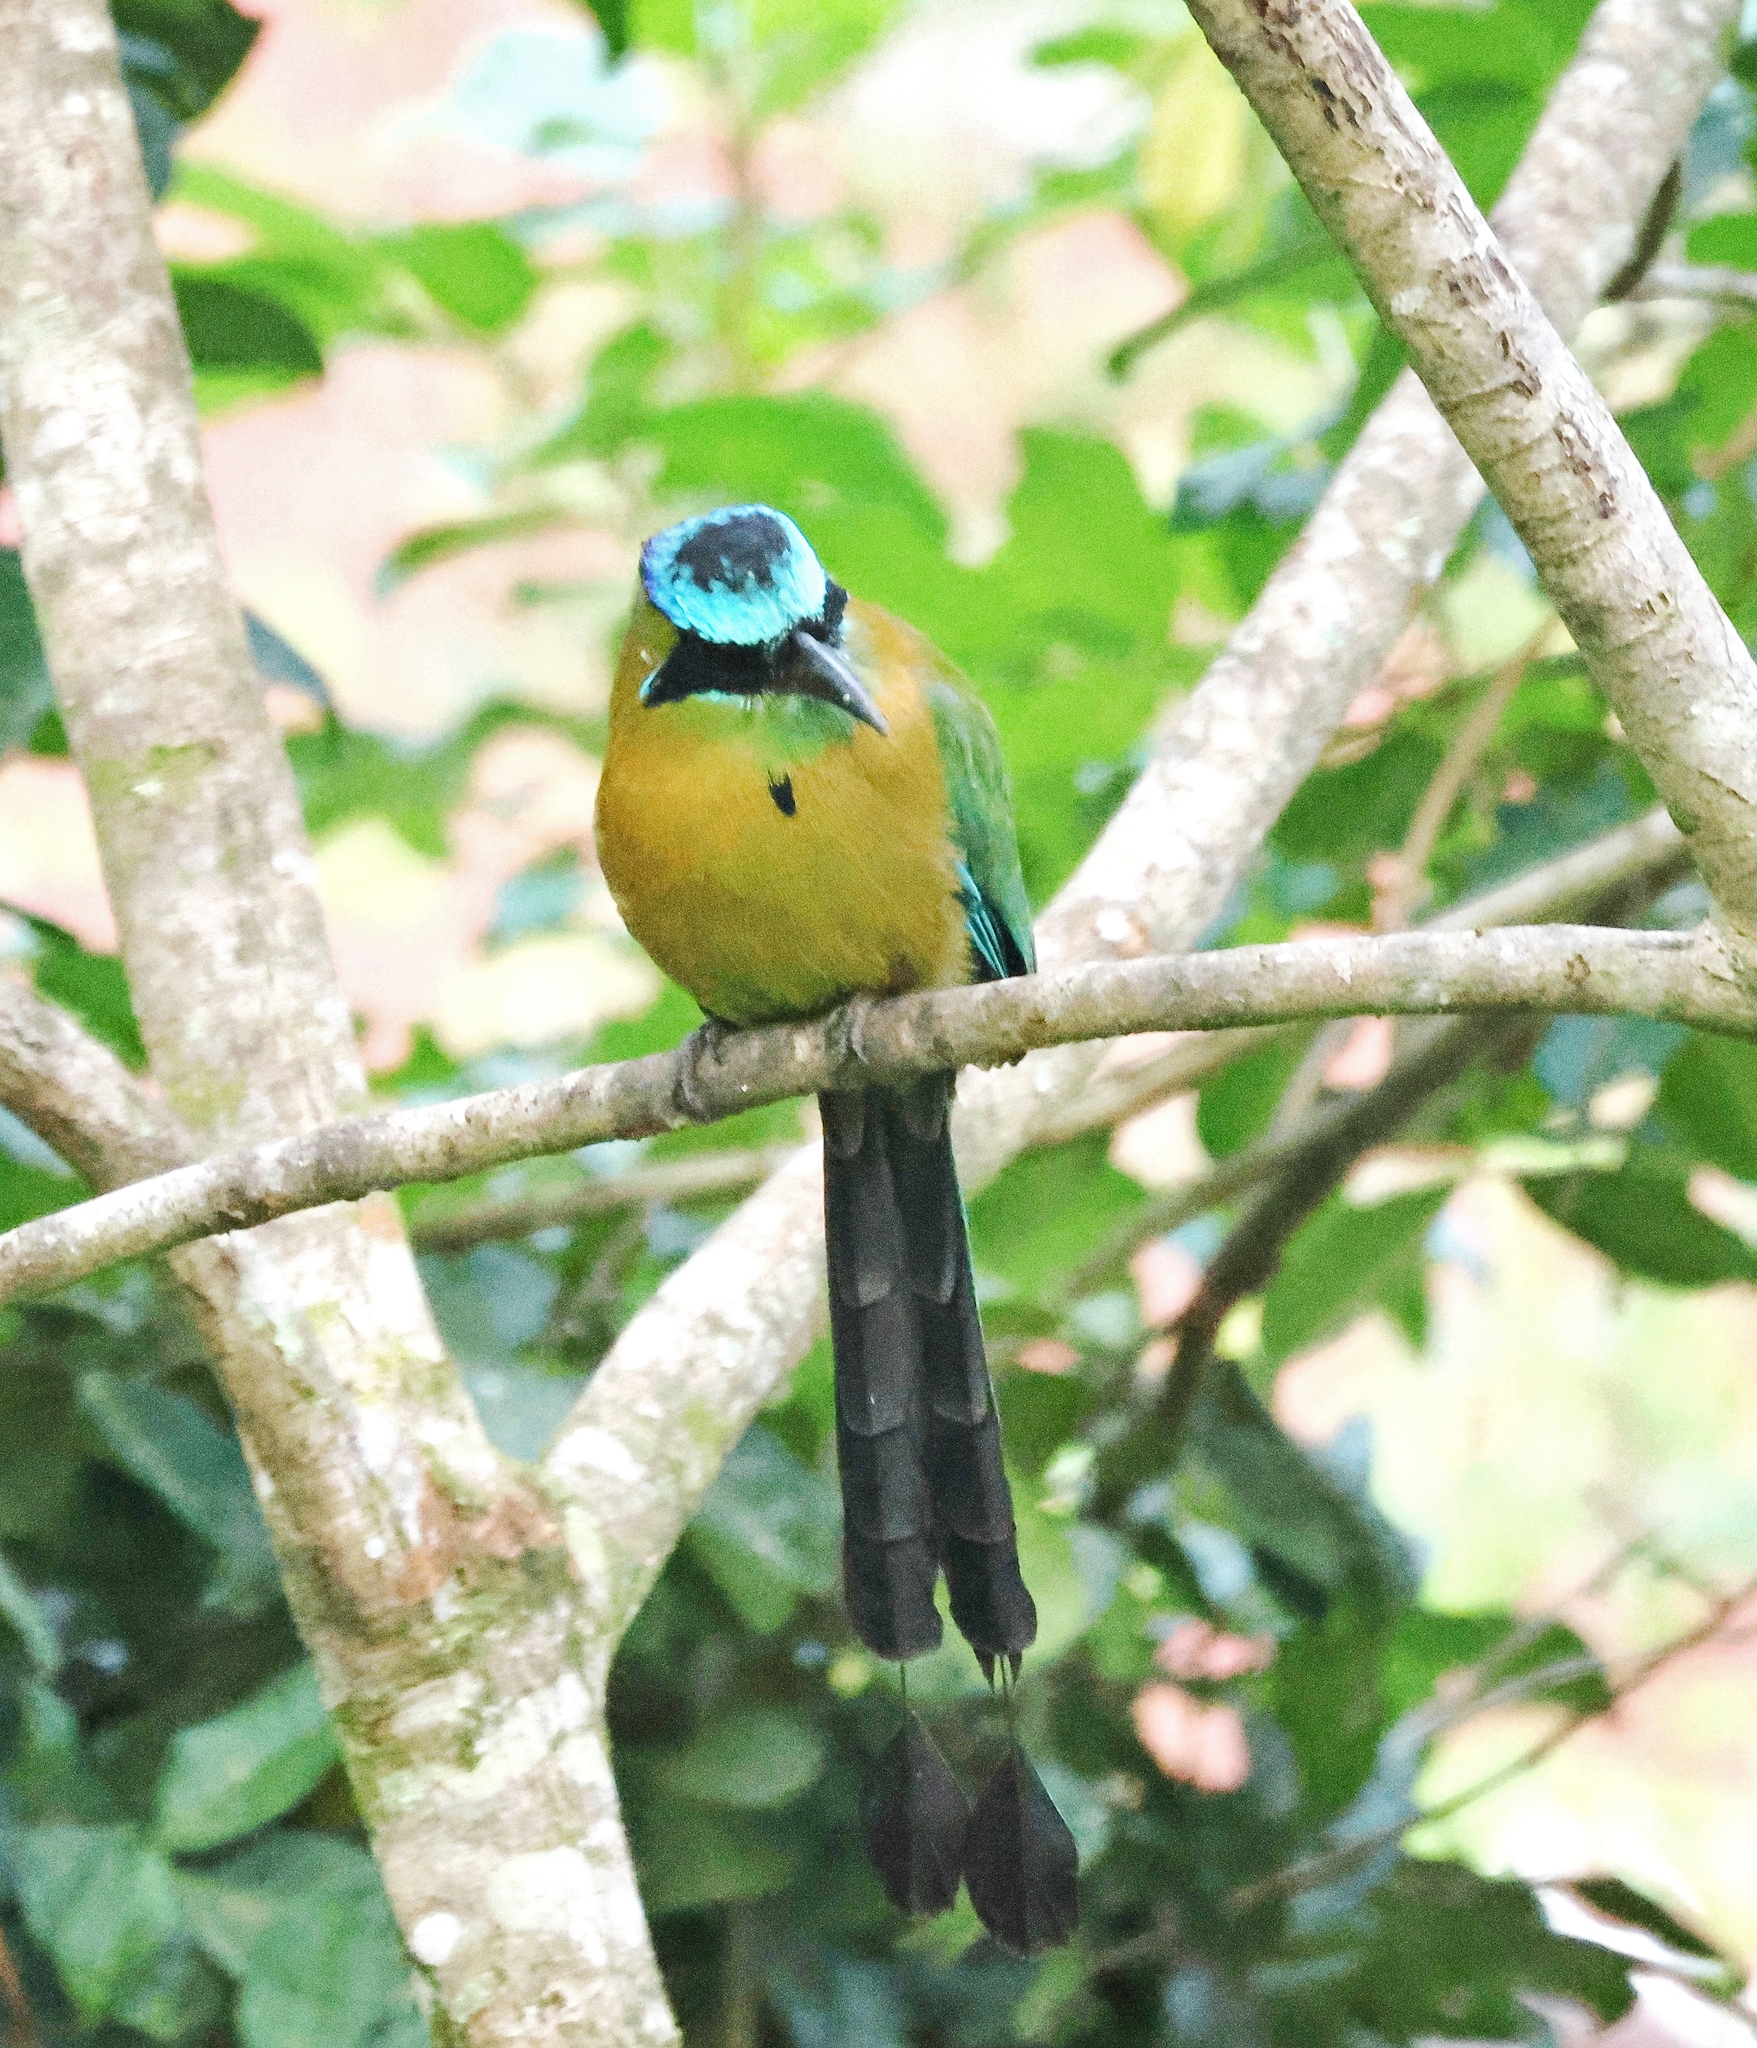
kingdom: Animalia
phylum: Chordata
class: Aves
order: Coraciiformes
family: Momotidae
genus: Momotus
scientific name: Momotus lessonii
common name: Lesson's motmot
